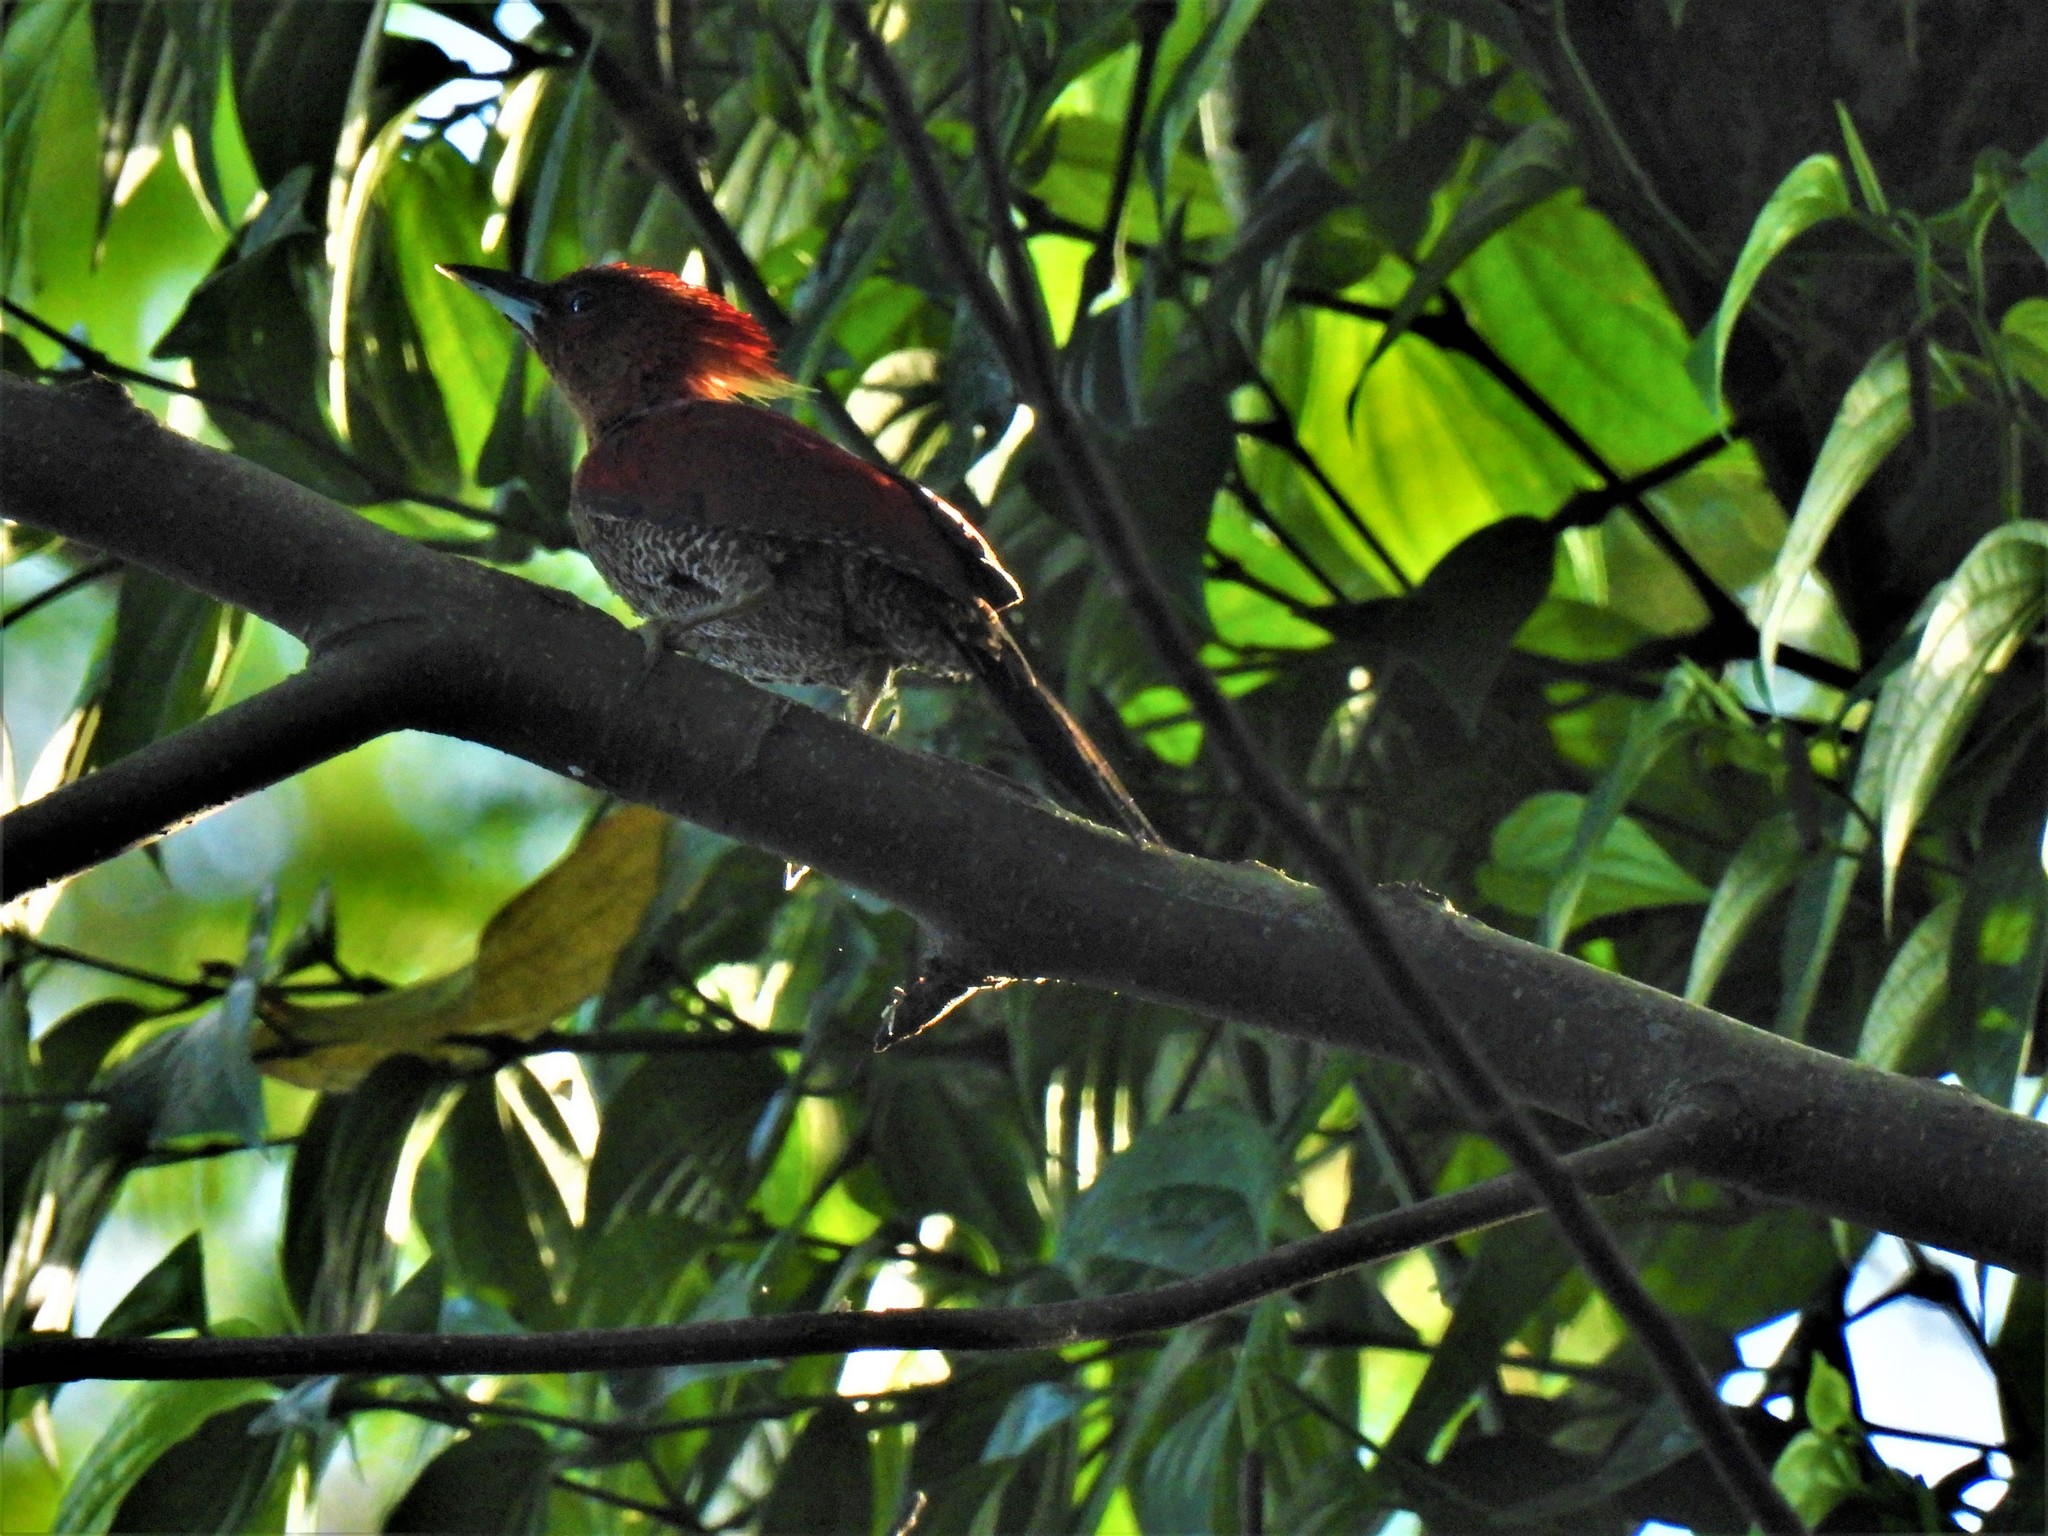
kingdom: Animalia
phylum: Chordata
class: Aves
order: Piciformes
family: Picidae
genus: Chrysophlegma
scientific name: Chrysophlegma miniaceum
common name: Banded woodpecker
